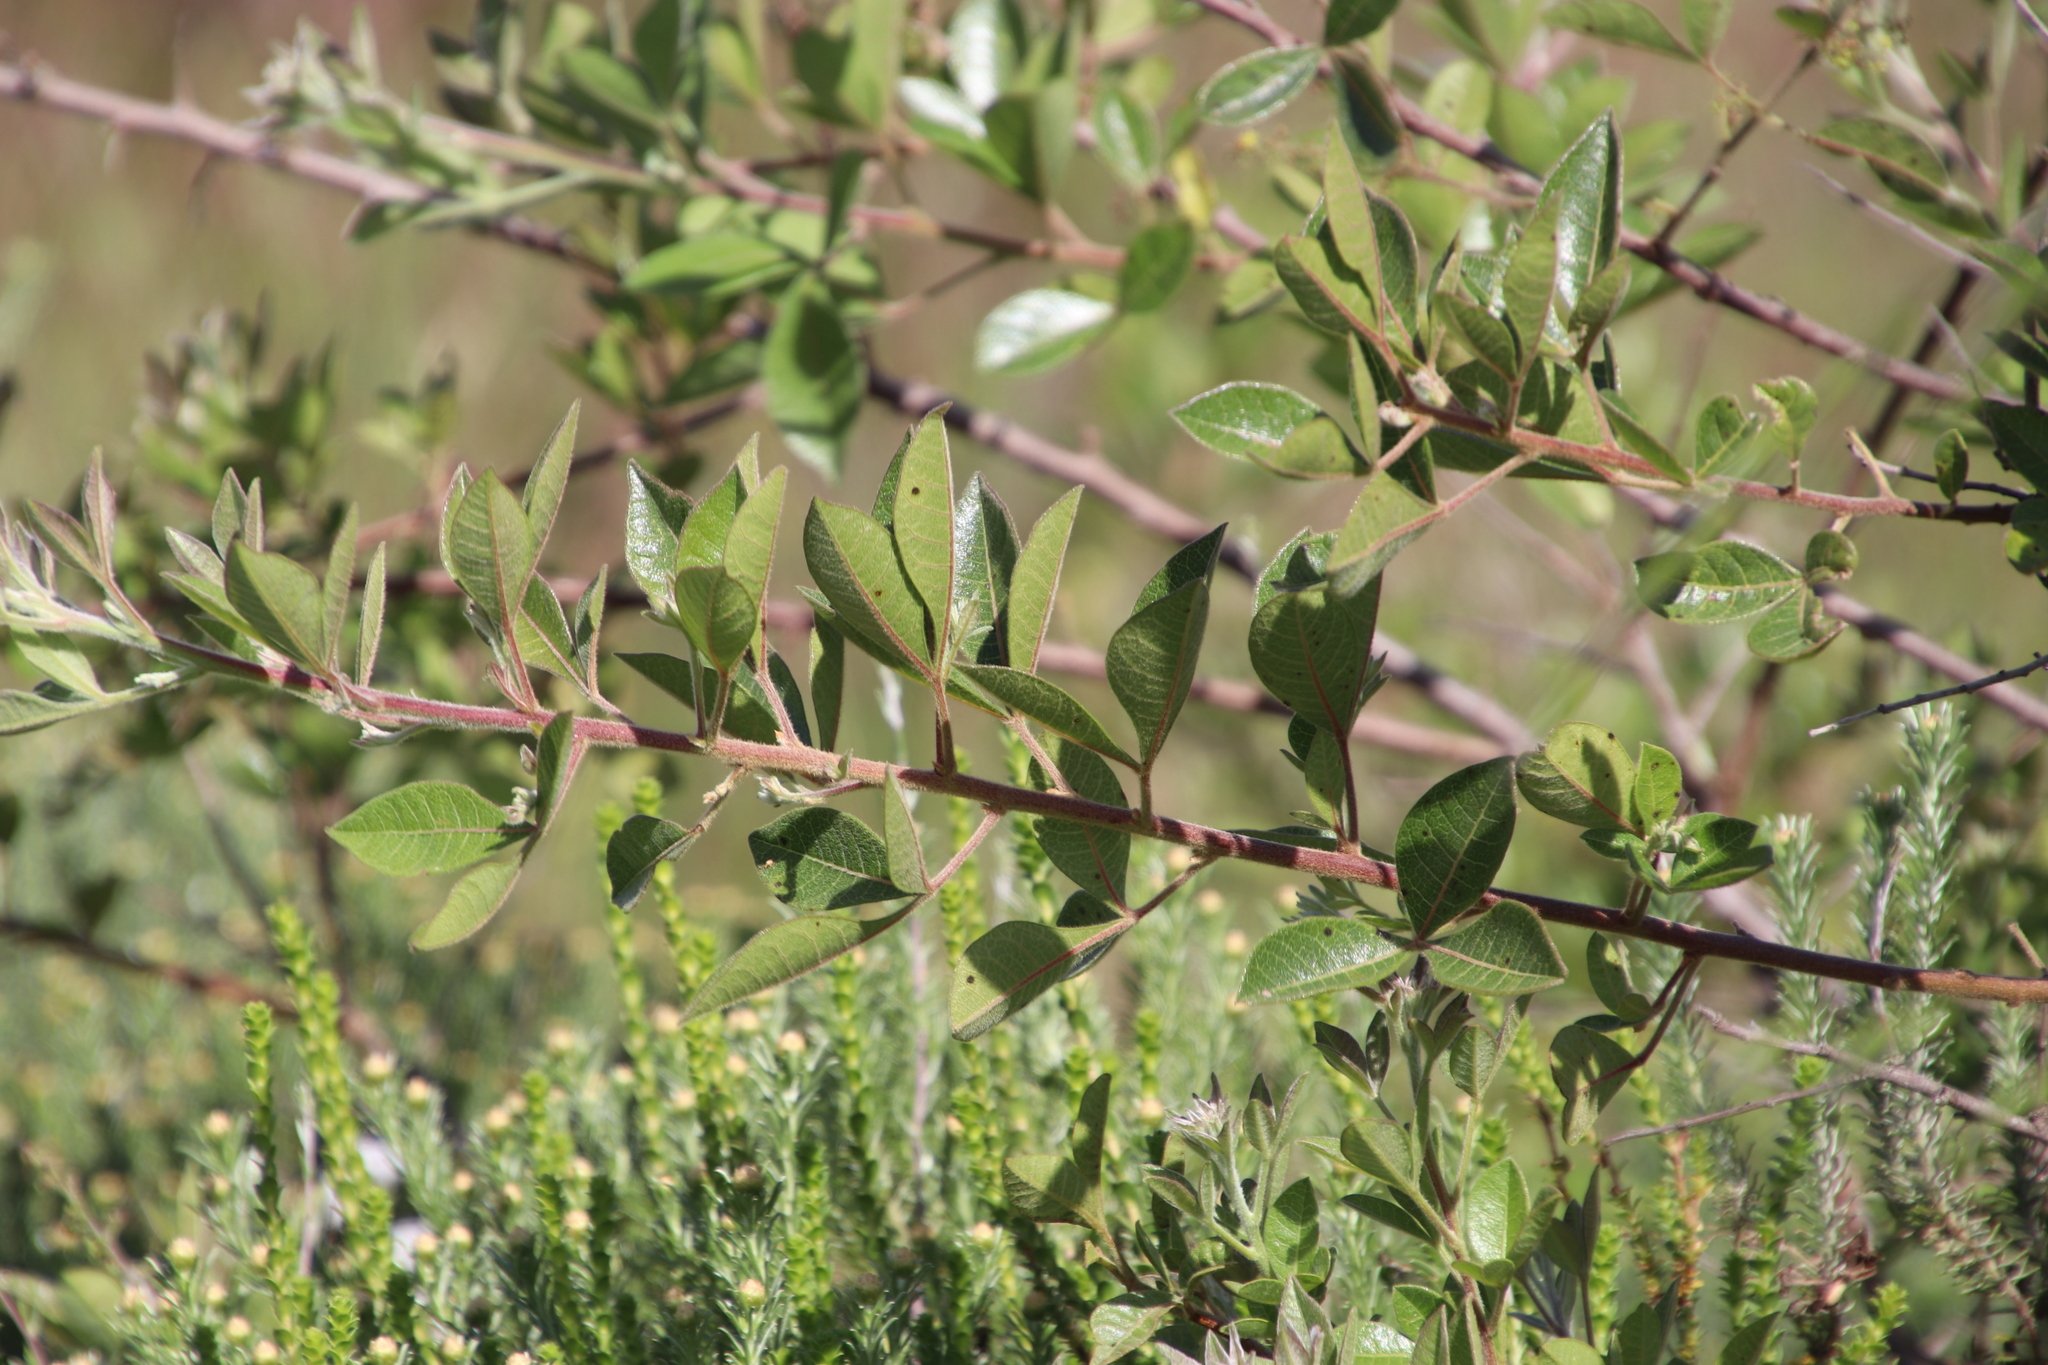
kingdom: Plantae
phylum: Tracheophyta
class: Magnoliopsida
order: Sapindales
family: Anacardiaceae
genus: Searsia
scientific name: Searsia laevigata
